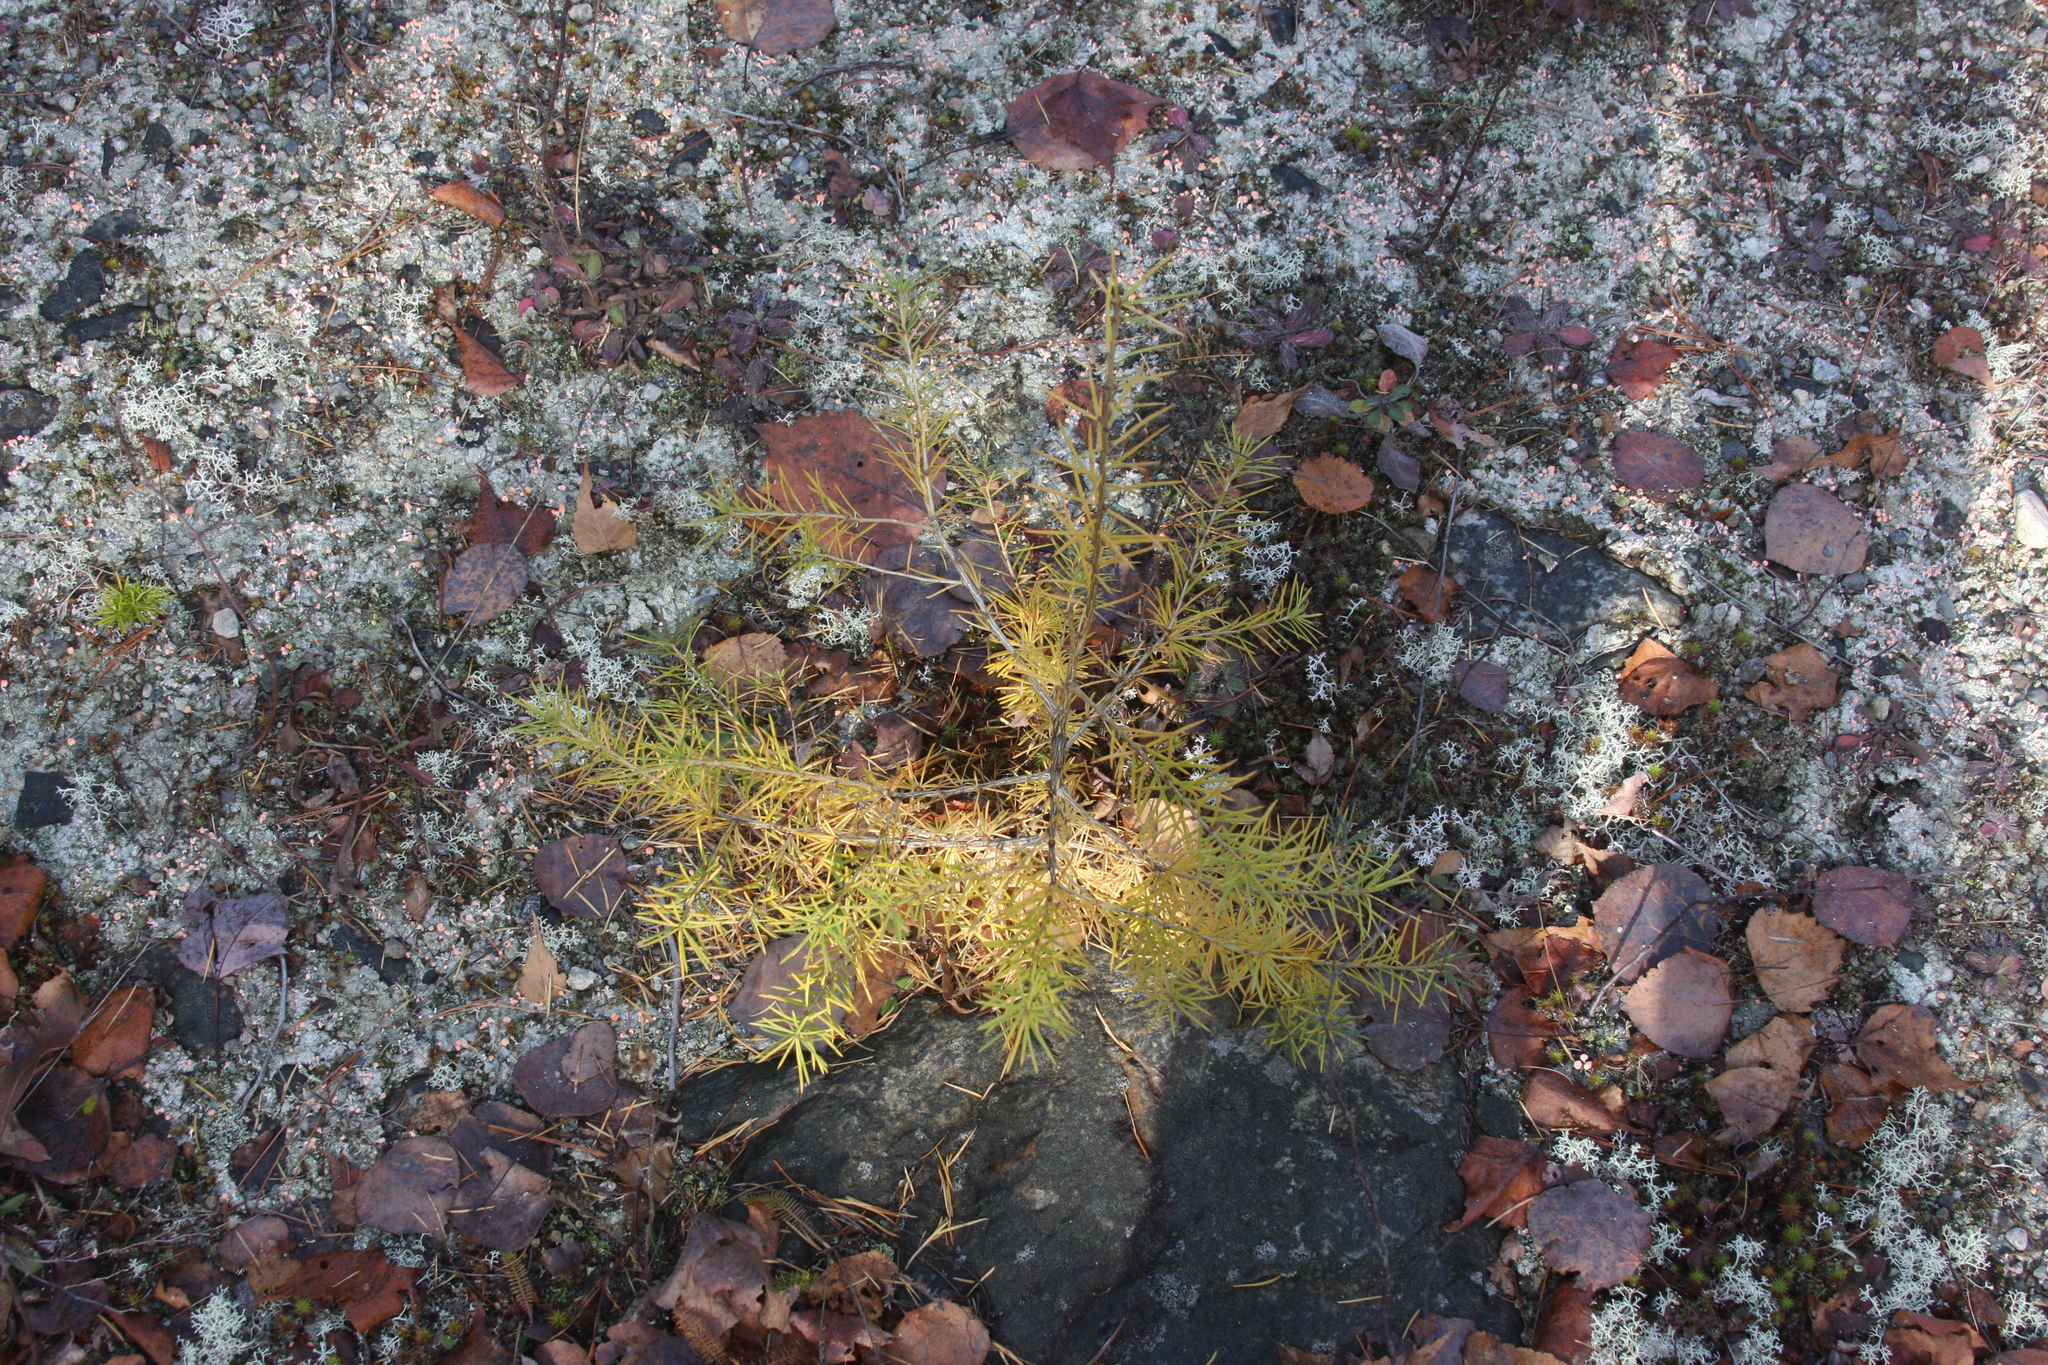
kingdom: Plantae
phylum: Tracheophyta
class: Pinopsida
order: Pinales
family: Pinaceae
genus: Larix
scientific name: Larix laricina
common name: American larch
